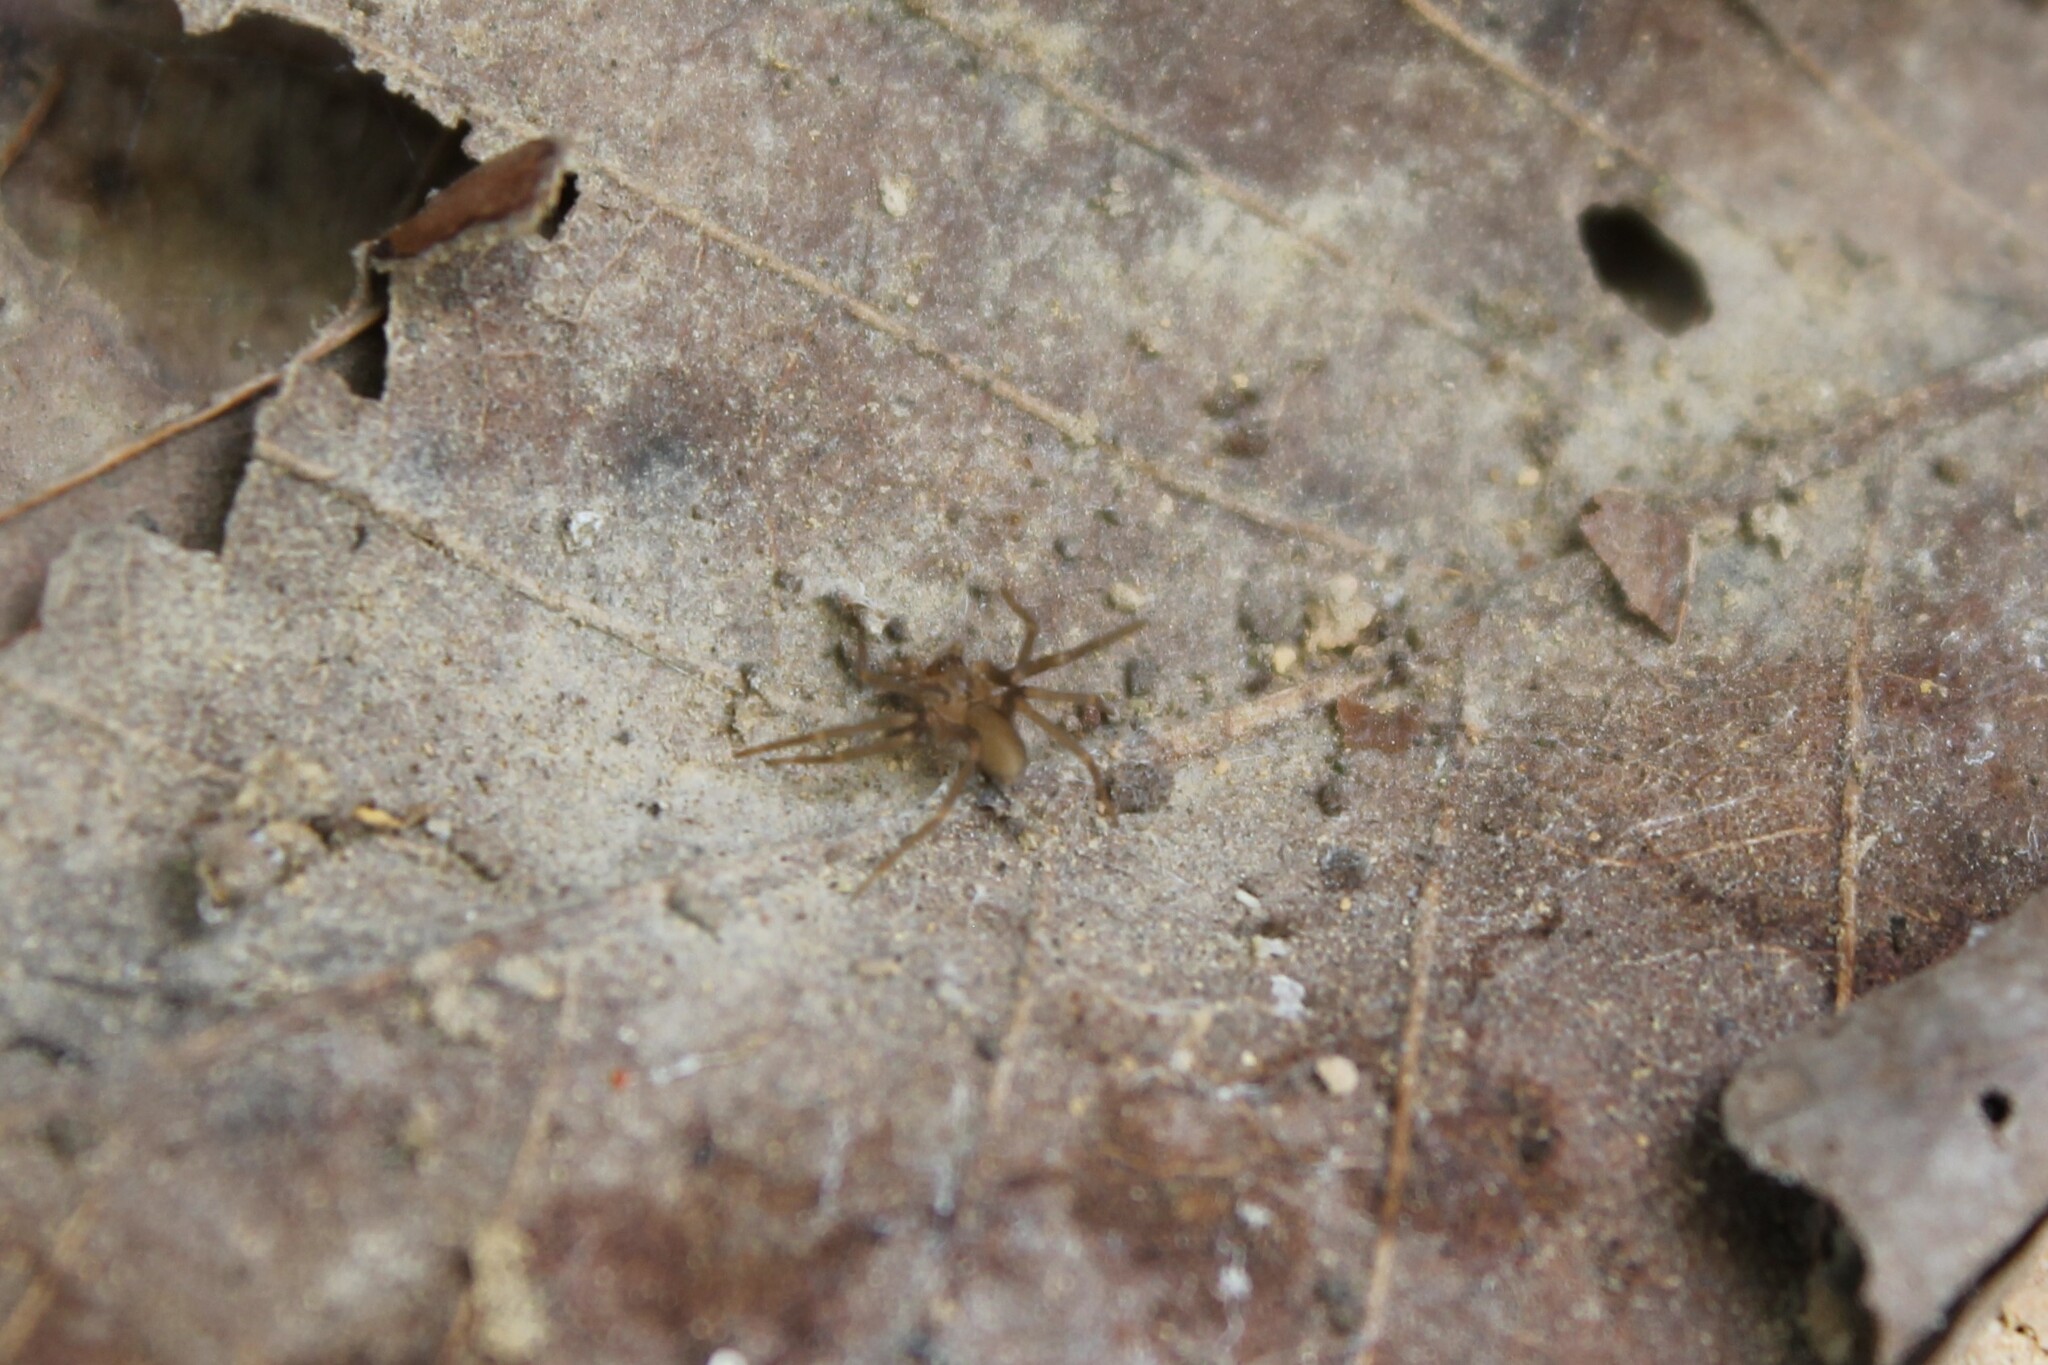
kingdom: Animalia
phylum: Arthropoda
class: Arachnida
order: Araneae
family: Sicariidae
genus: Loxosceles
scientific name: Loxosceles reclusa
